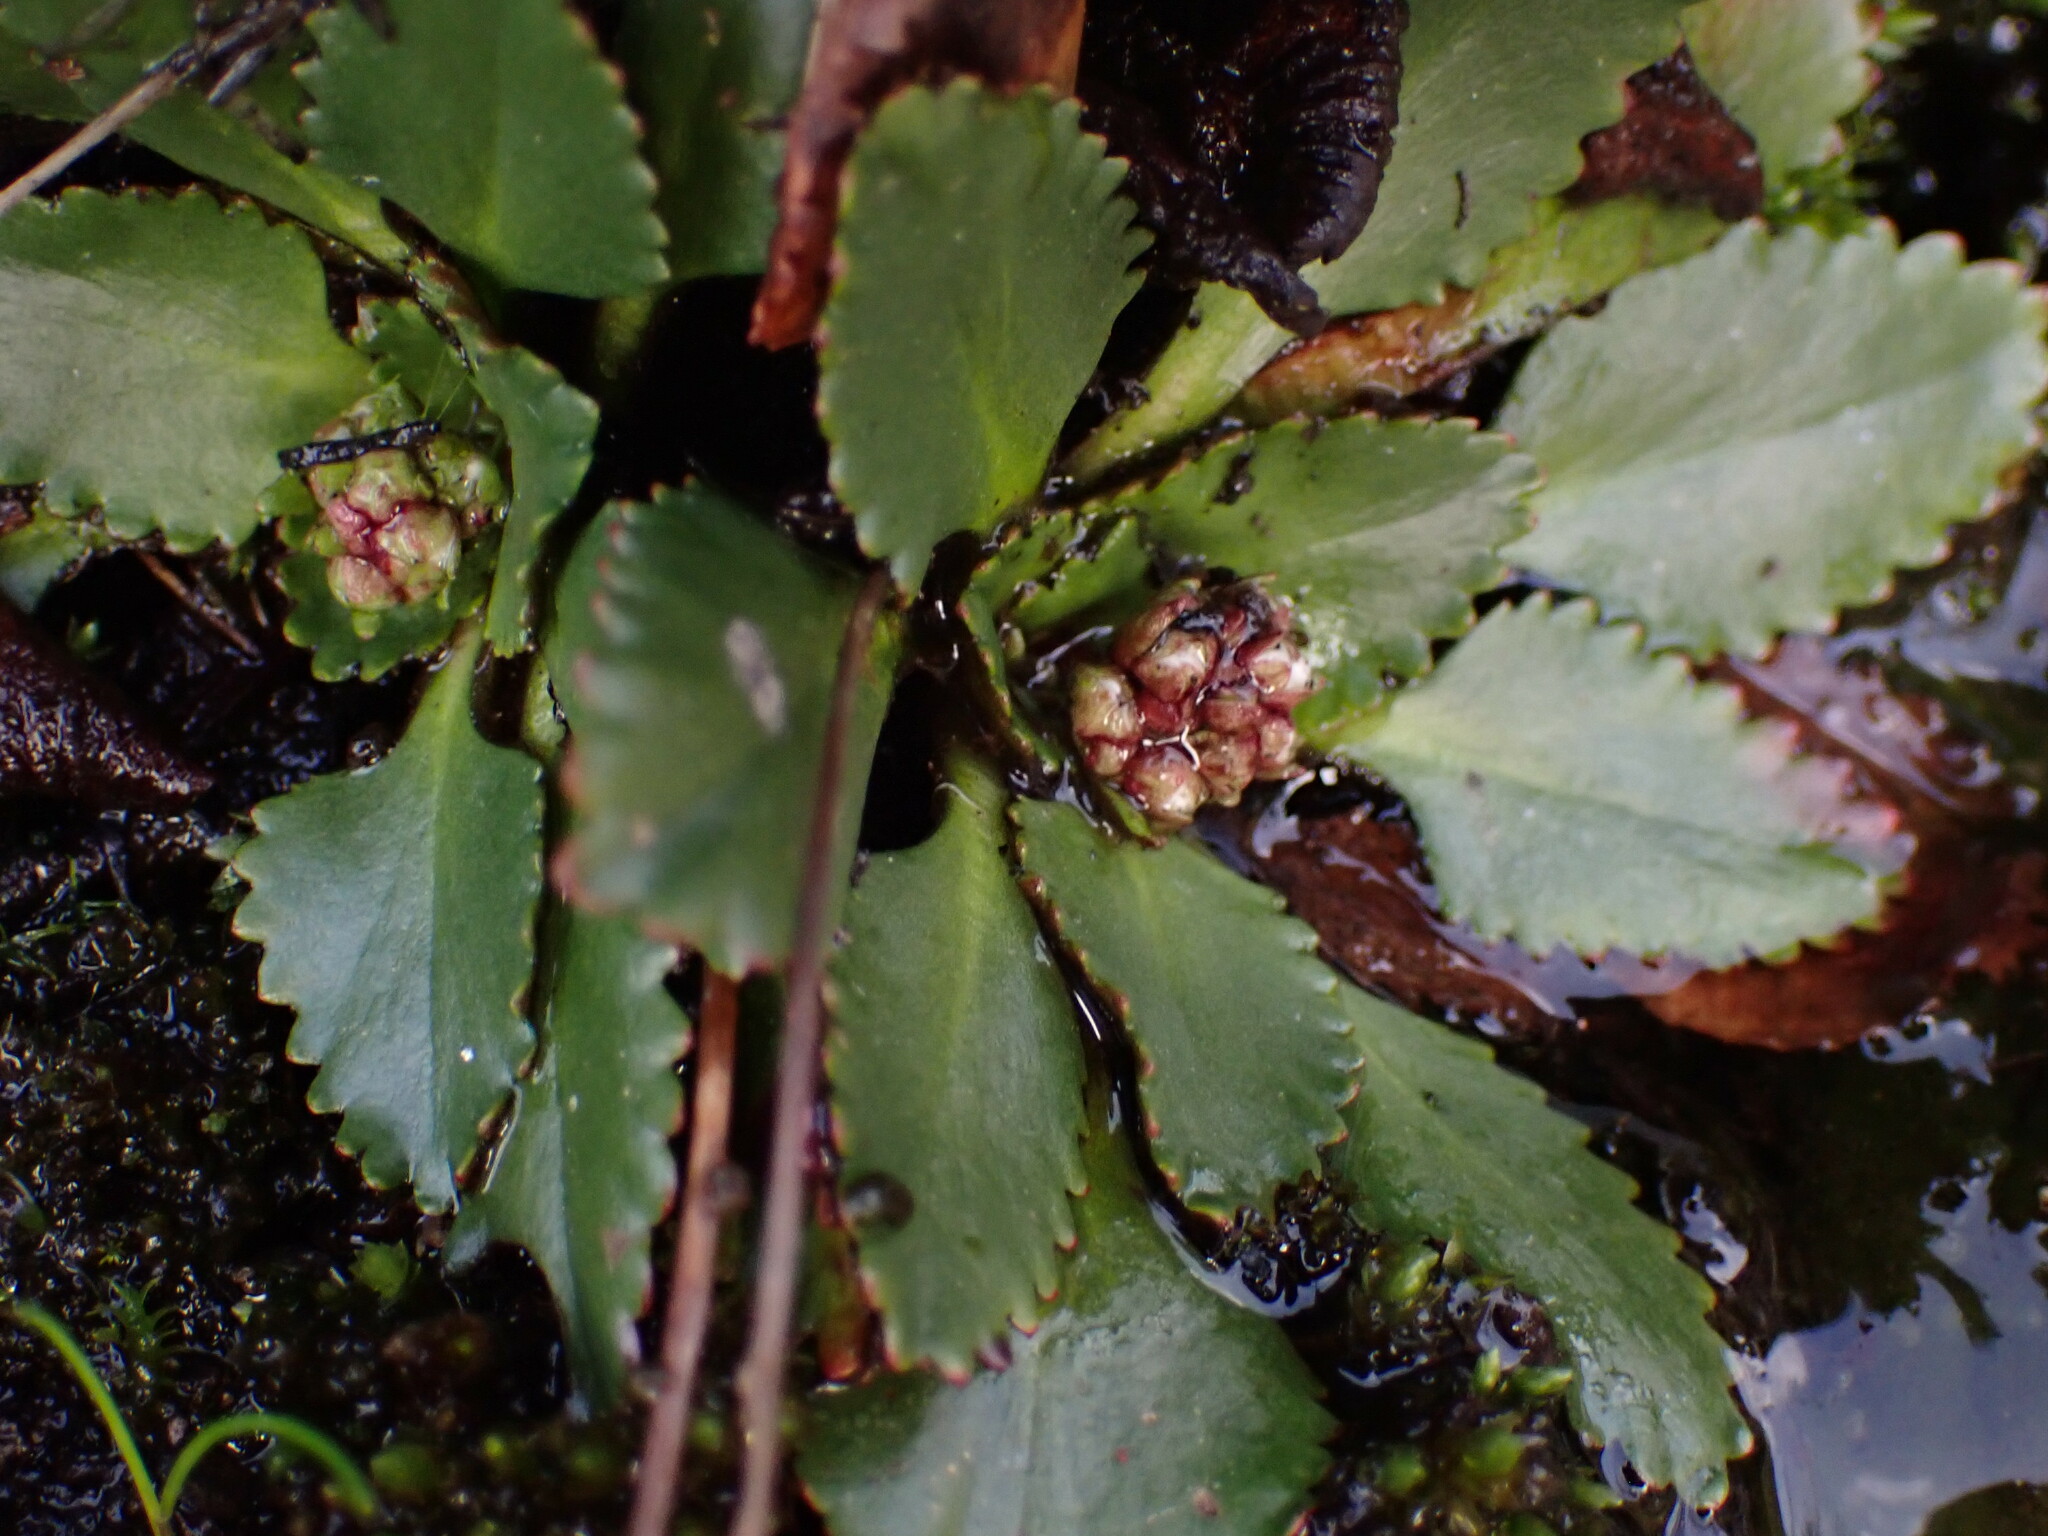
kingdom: Plantae
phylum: Tracheophyta
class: Magnoliopsida
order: Saxifragales
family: Saxifragaceae
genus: Micranthes
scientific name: Micranthes rufidula
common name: Rustyhair saxifrage
